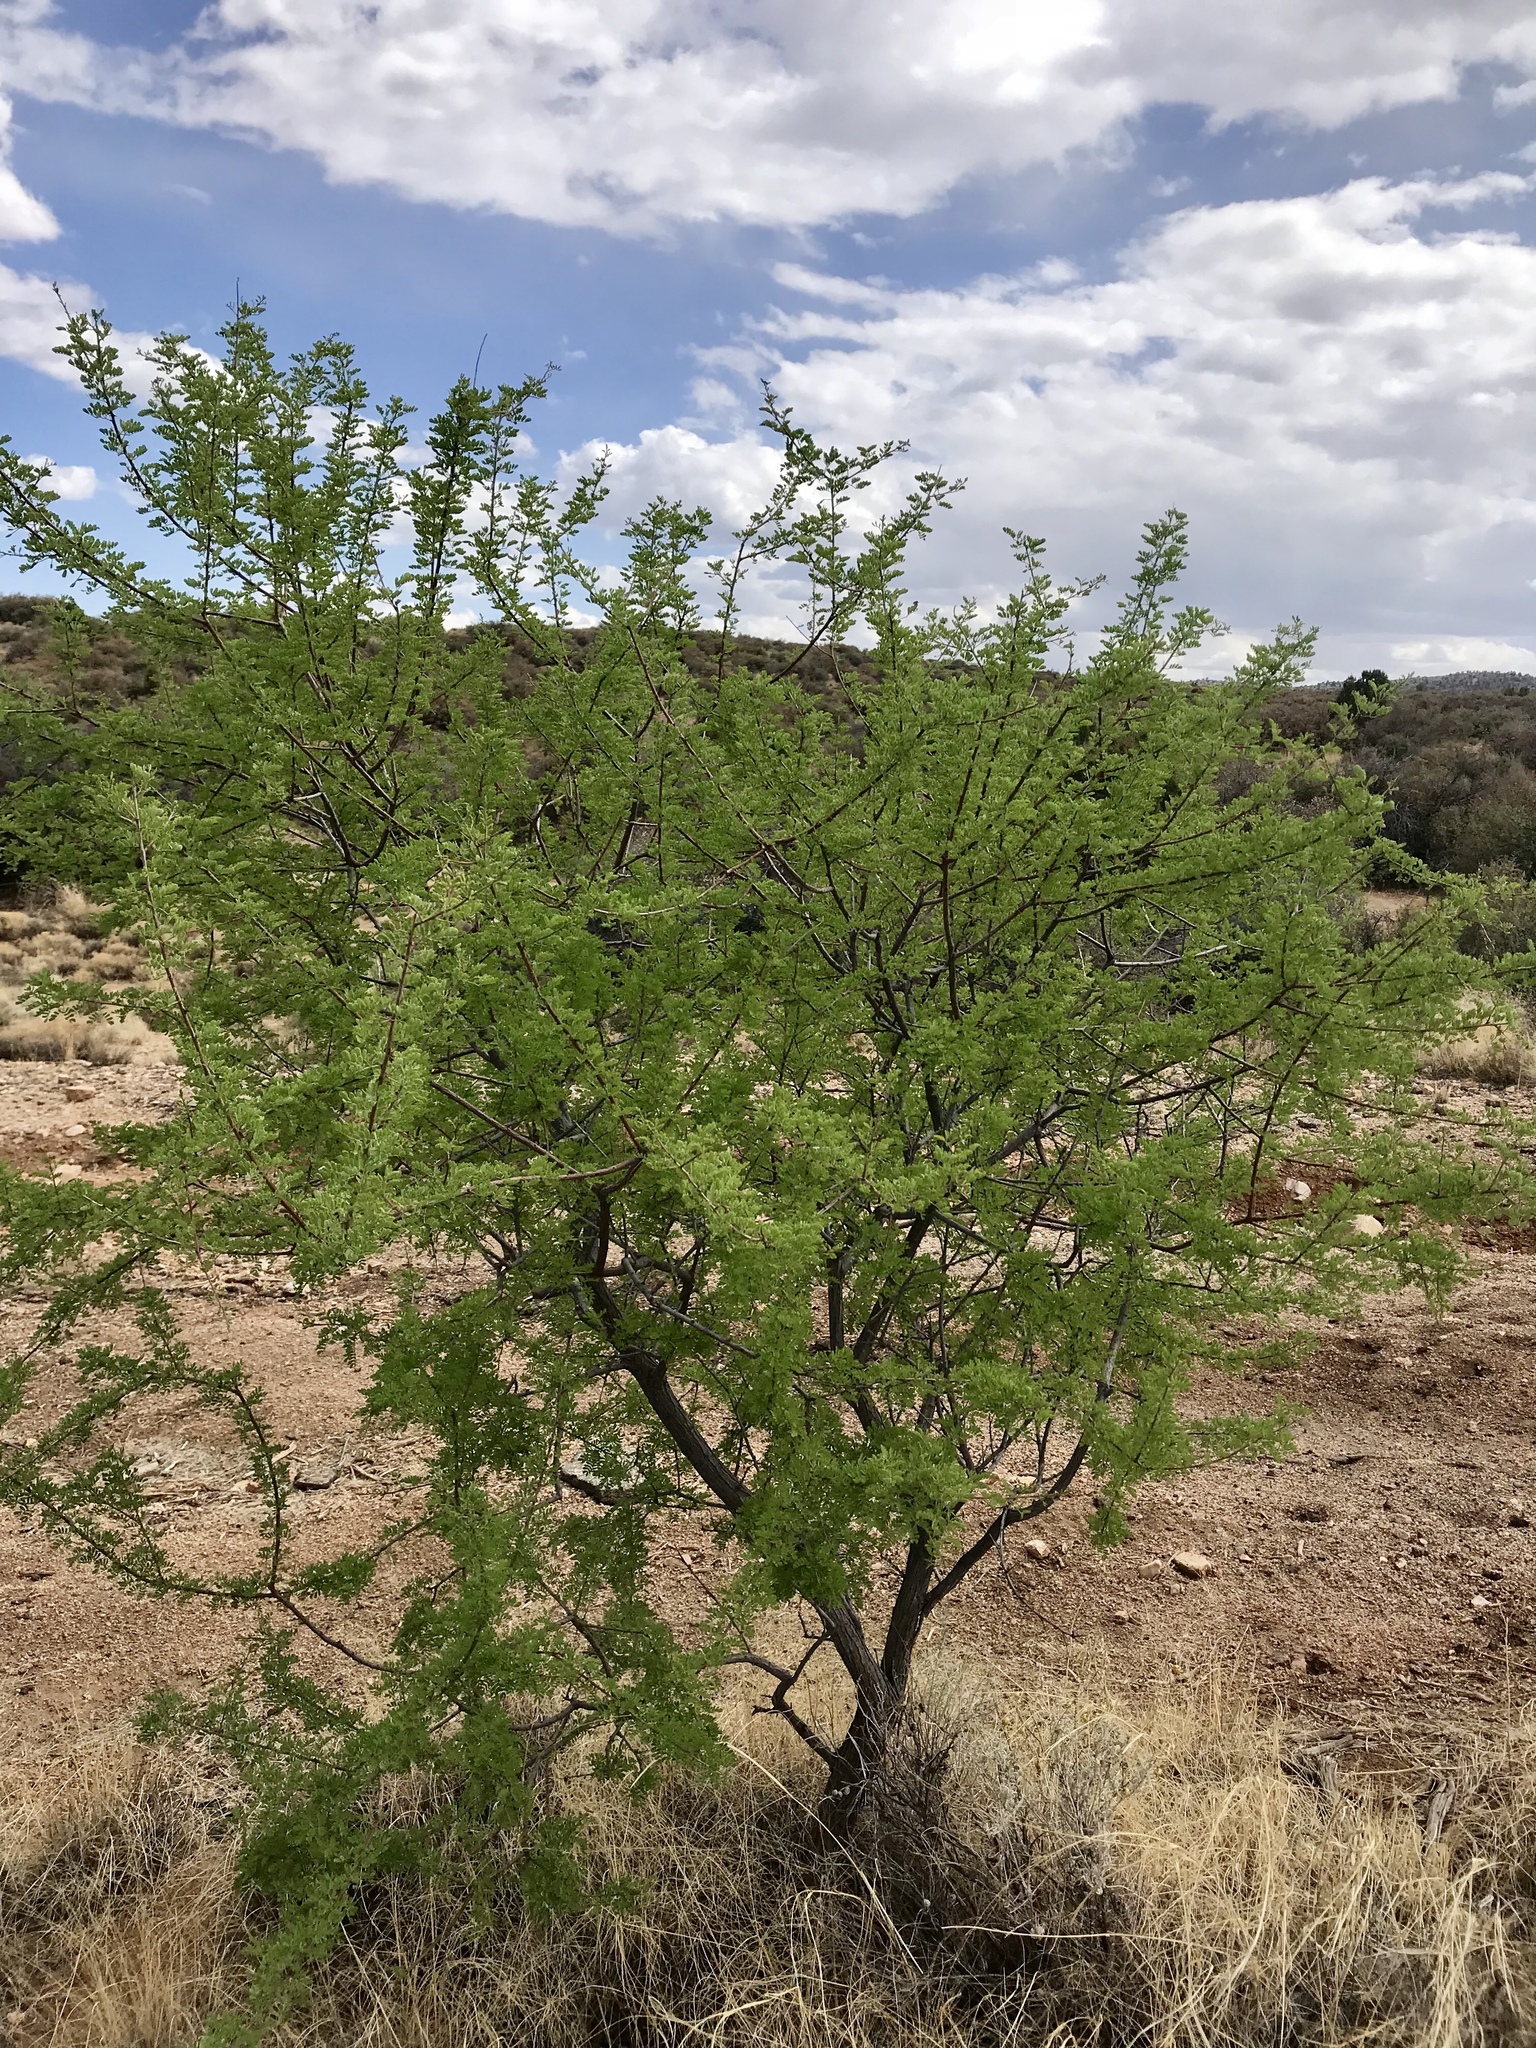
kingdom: Plantae
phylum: Tracheophyta
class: Magnoliopsida
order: Fabales
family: Fabaceae
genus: Senegalia
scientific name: Senegalia greggii
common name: Texas-mimosa
